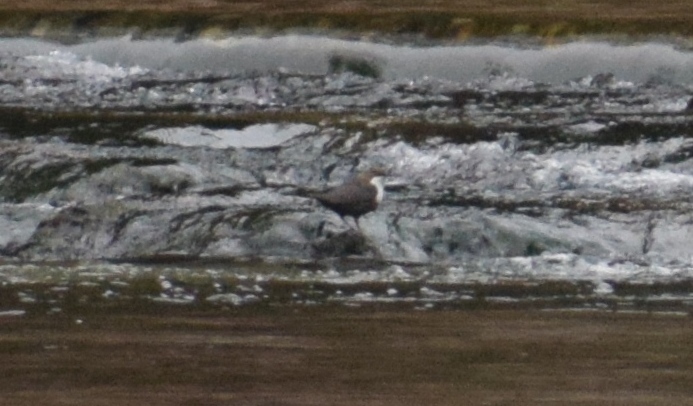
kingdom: Animalia
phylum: Chordata
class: Aves
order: Passeriformes
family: Cinclidae
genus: Cinclus
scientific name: Cinclus cinclus
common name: White-throated dipper
